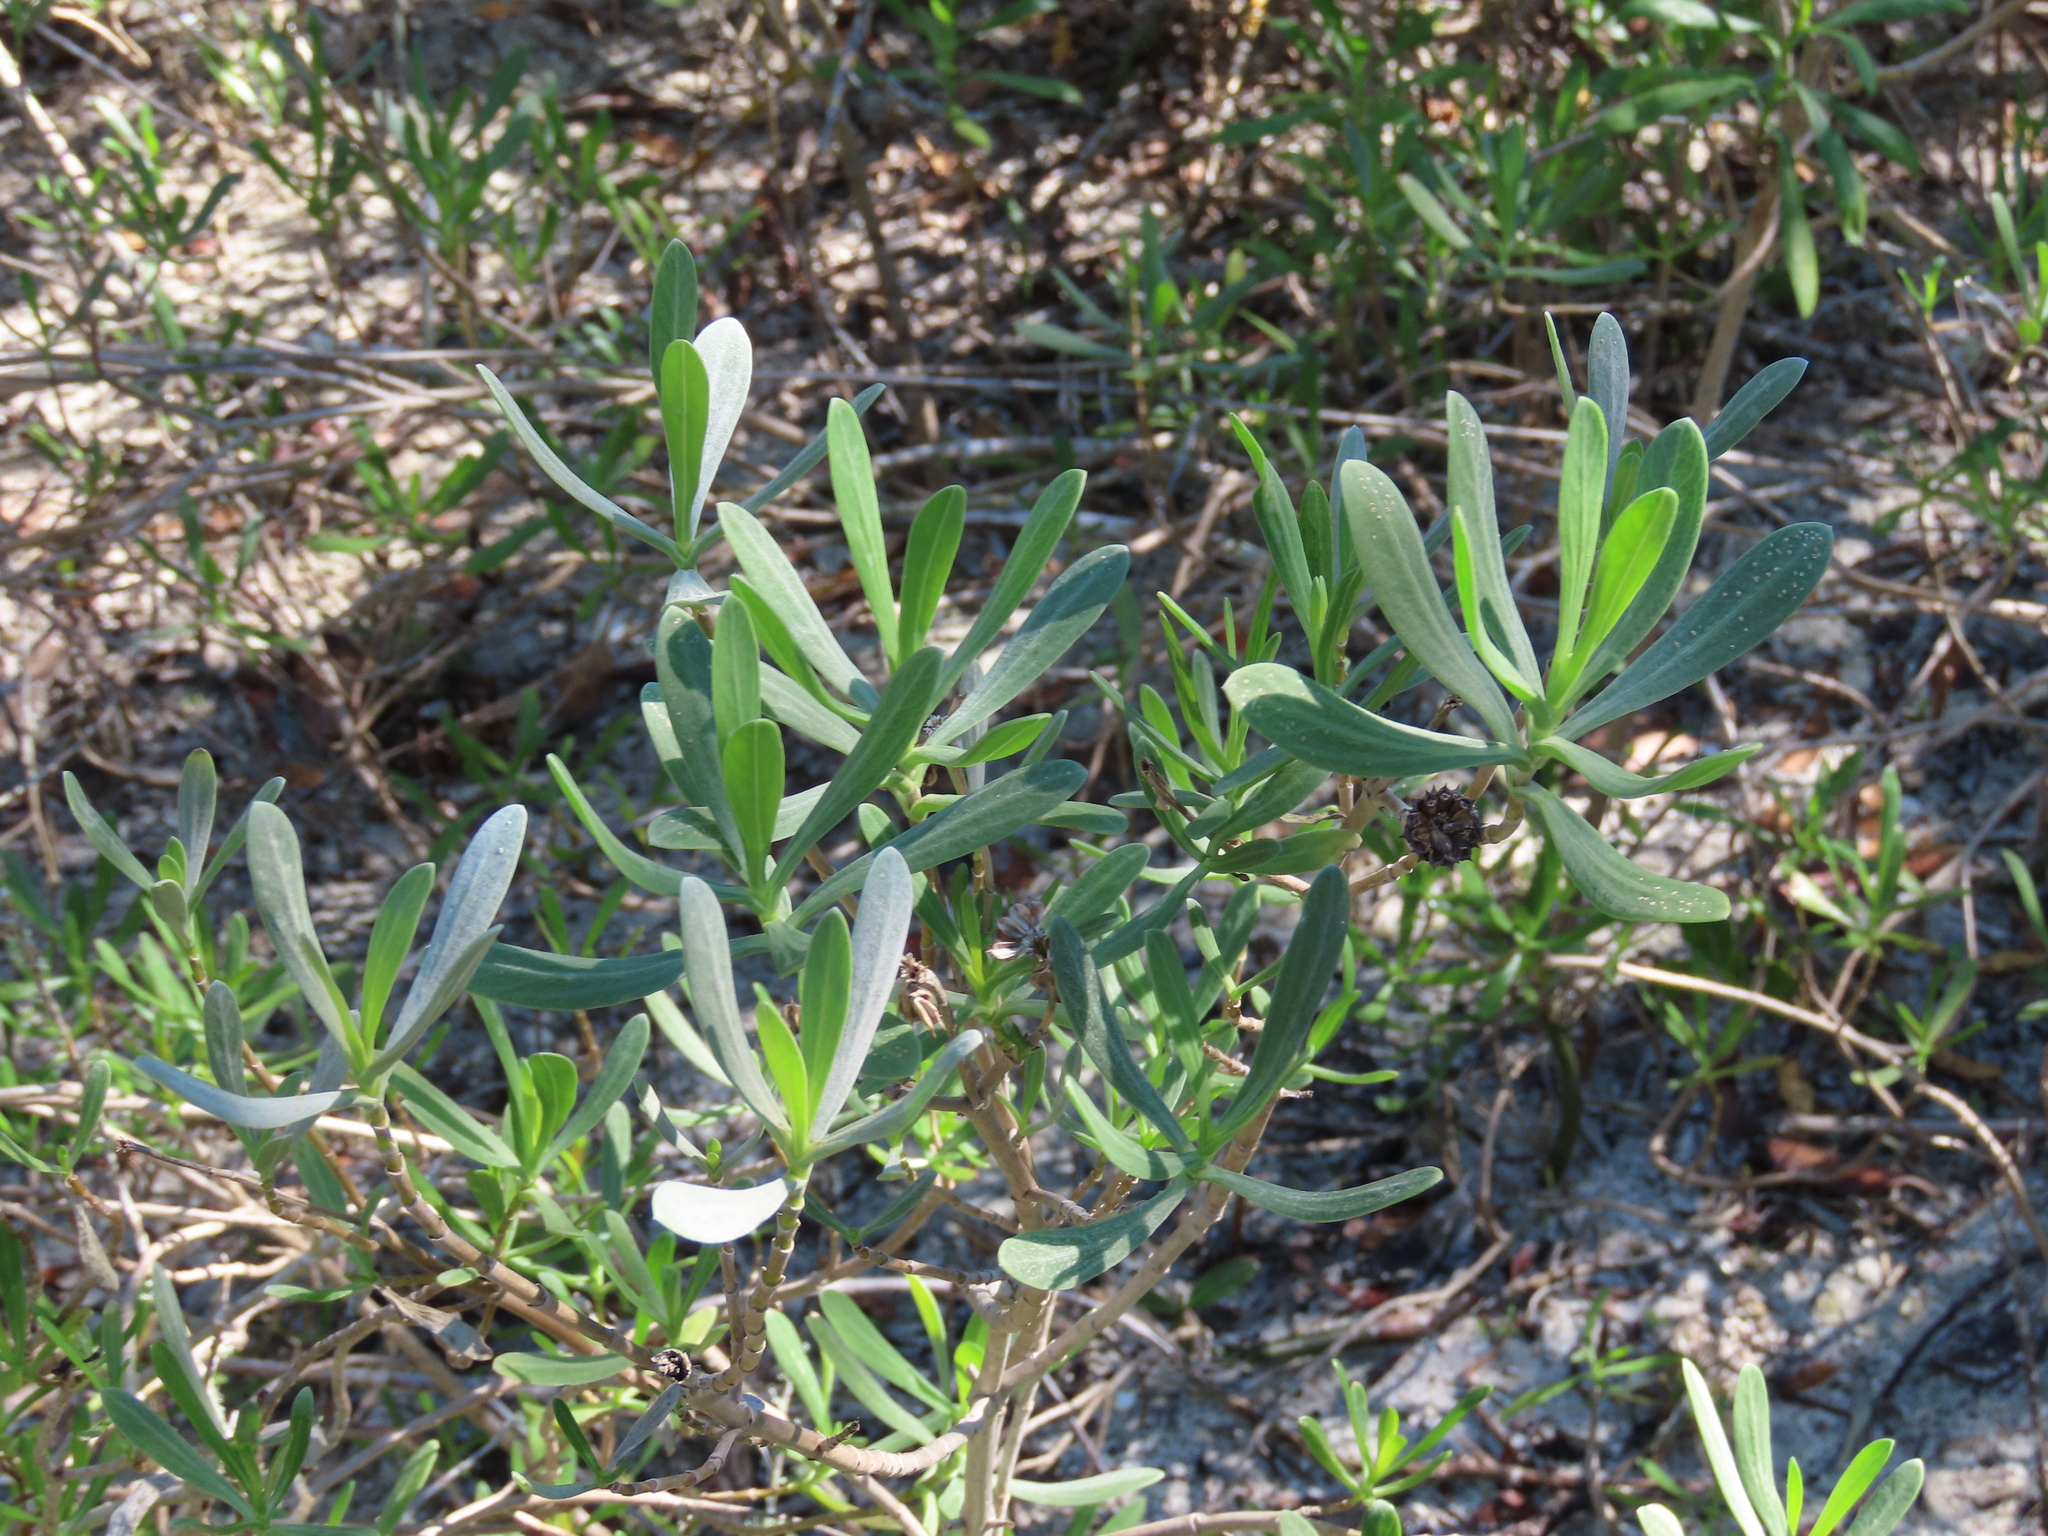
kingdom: Plantae
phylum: Tracheophyta
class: Magnoliopsida
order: Asterales
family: Asteraceae
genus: Borrichia
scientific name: Borrichia frutescens
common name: Sea oxeye
